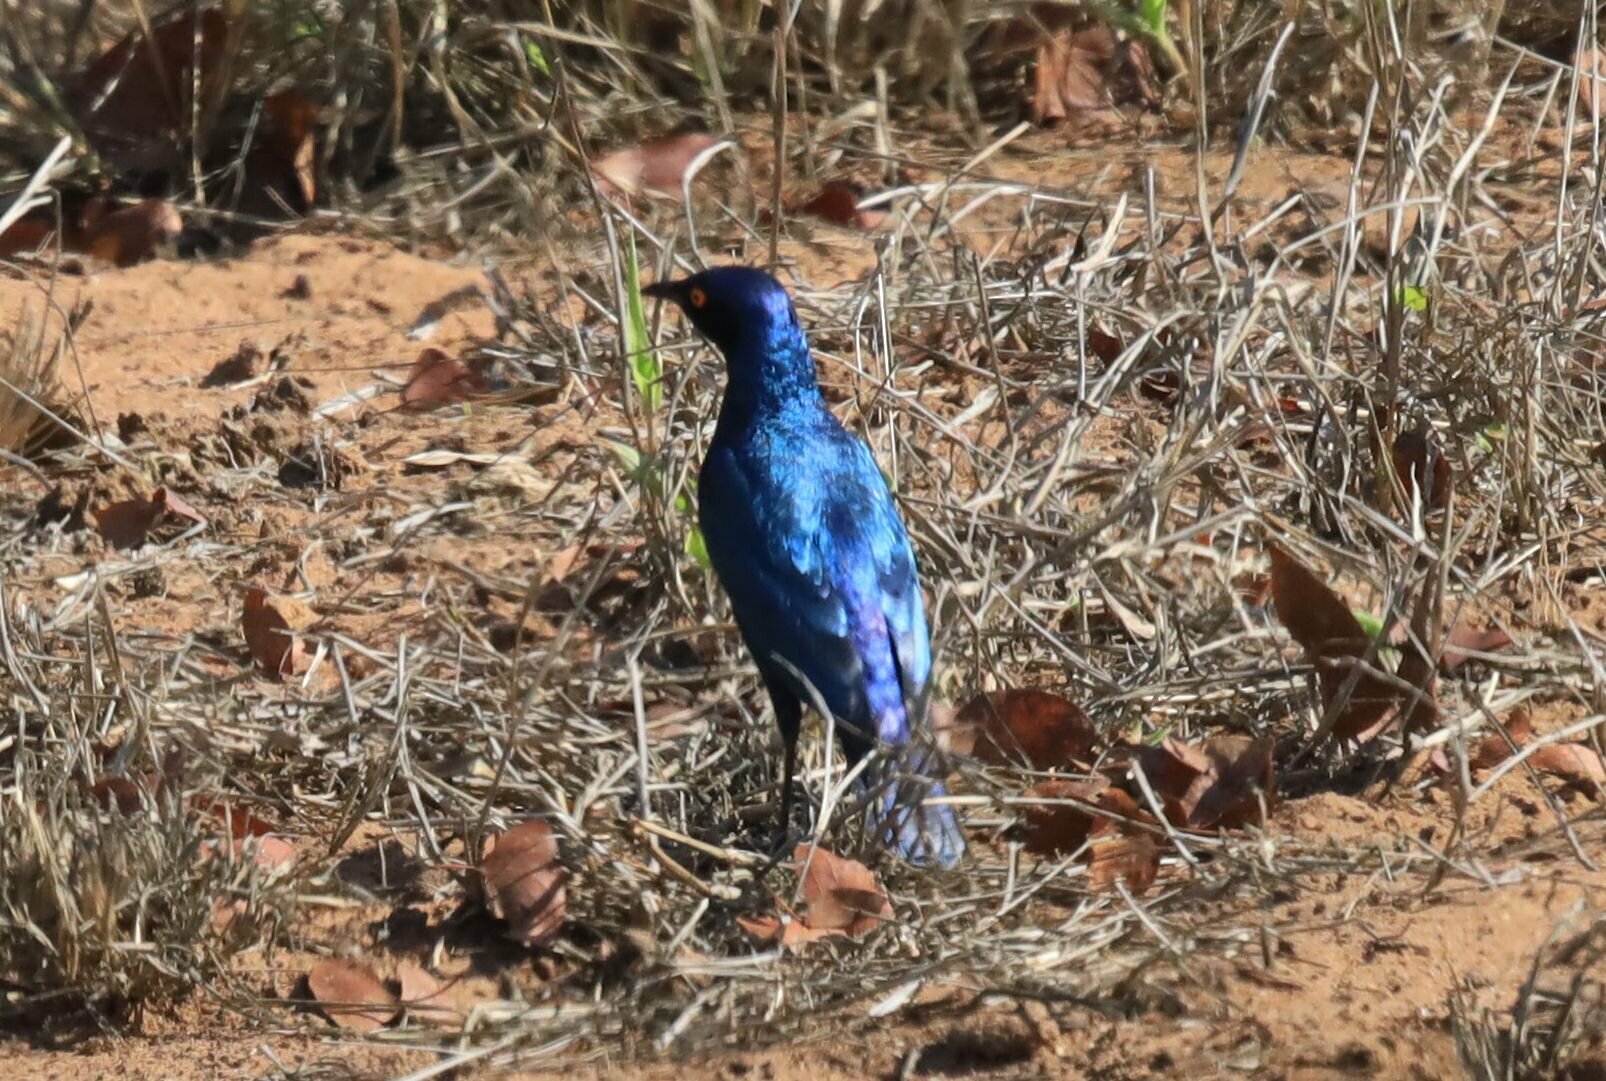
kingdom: Animalia
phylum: Chordata
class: Aves
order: Passeriformes
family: Sturnidae
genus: Lamprotornis
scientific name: Lamprotornis chalybaeus
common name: Greater blue-eared starling
